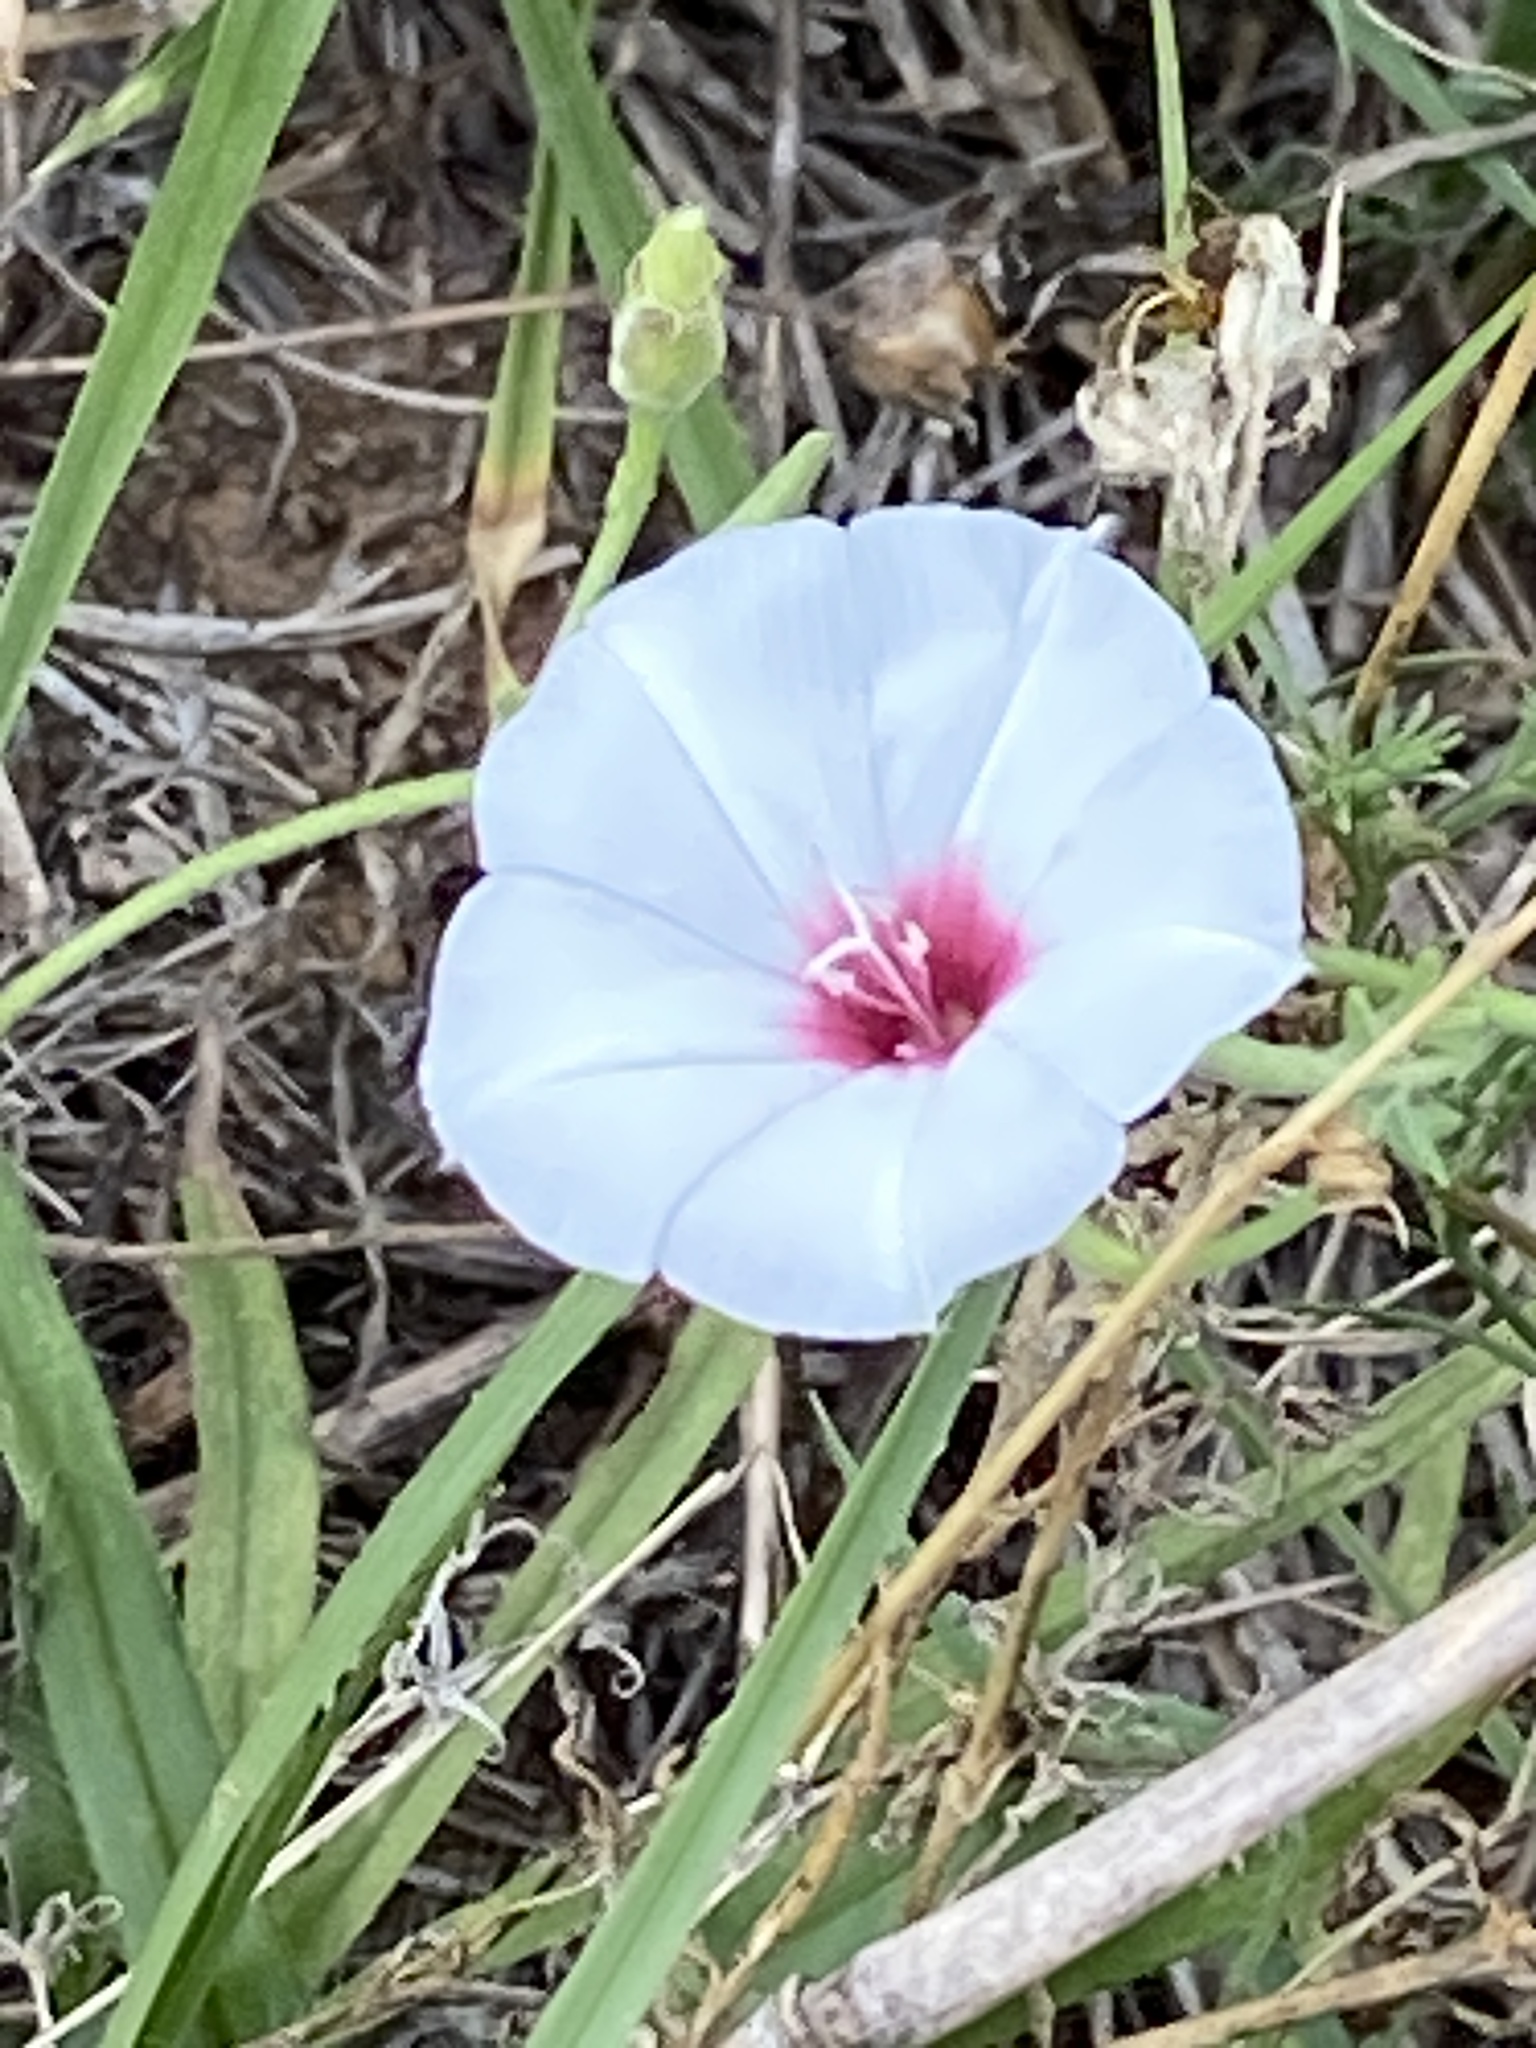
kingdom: Plantae
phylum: Tracheophyta
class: Magnoliopsida
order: Solanales
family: Convolvulaceae
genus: Convolvulus
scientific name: Convolvulus equitans
